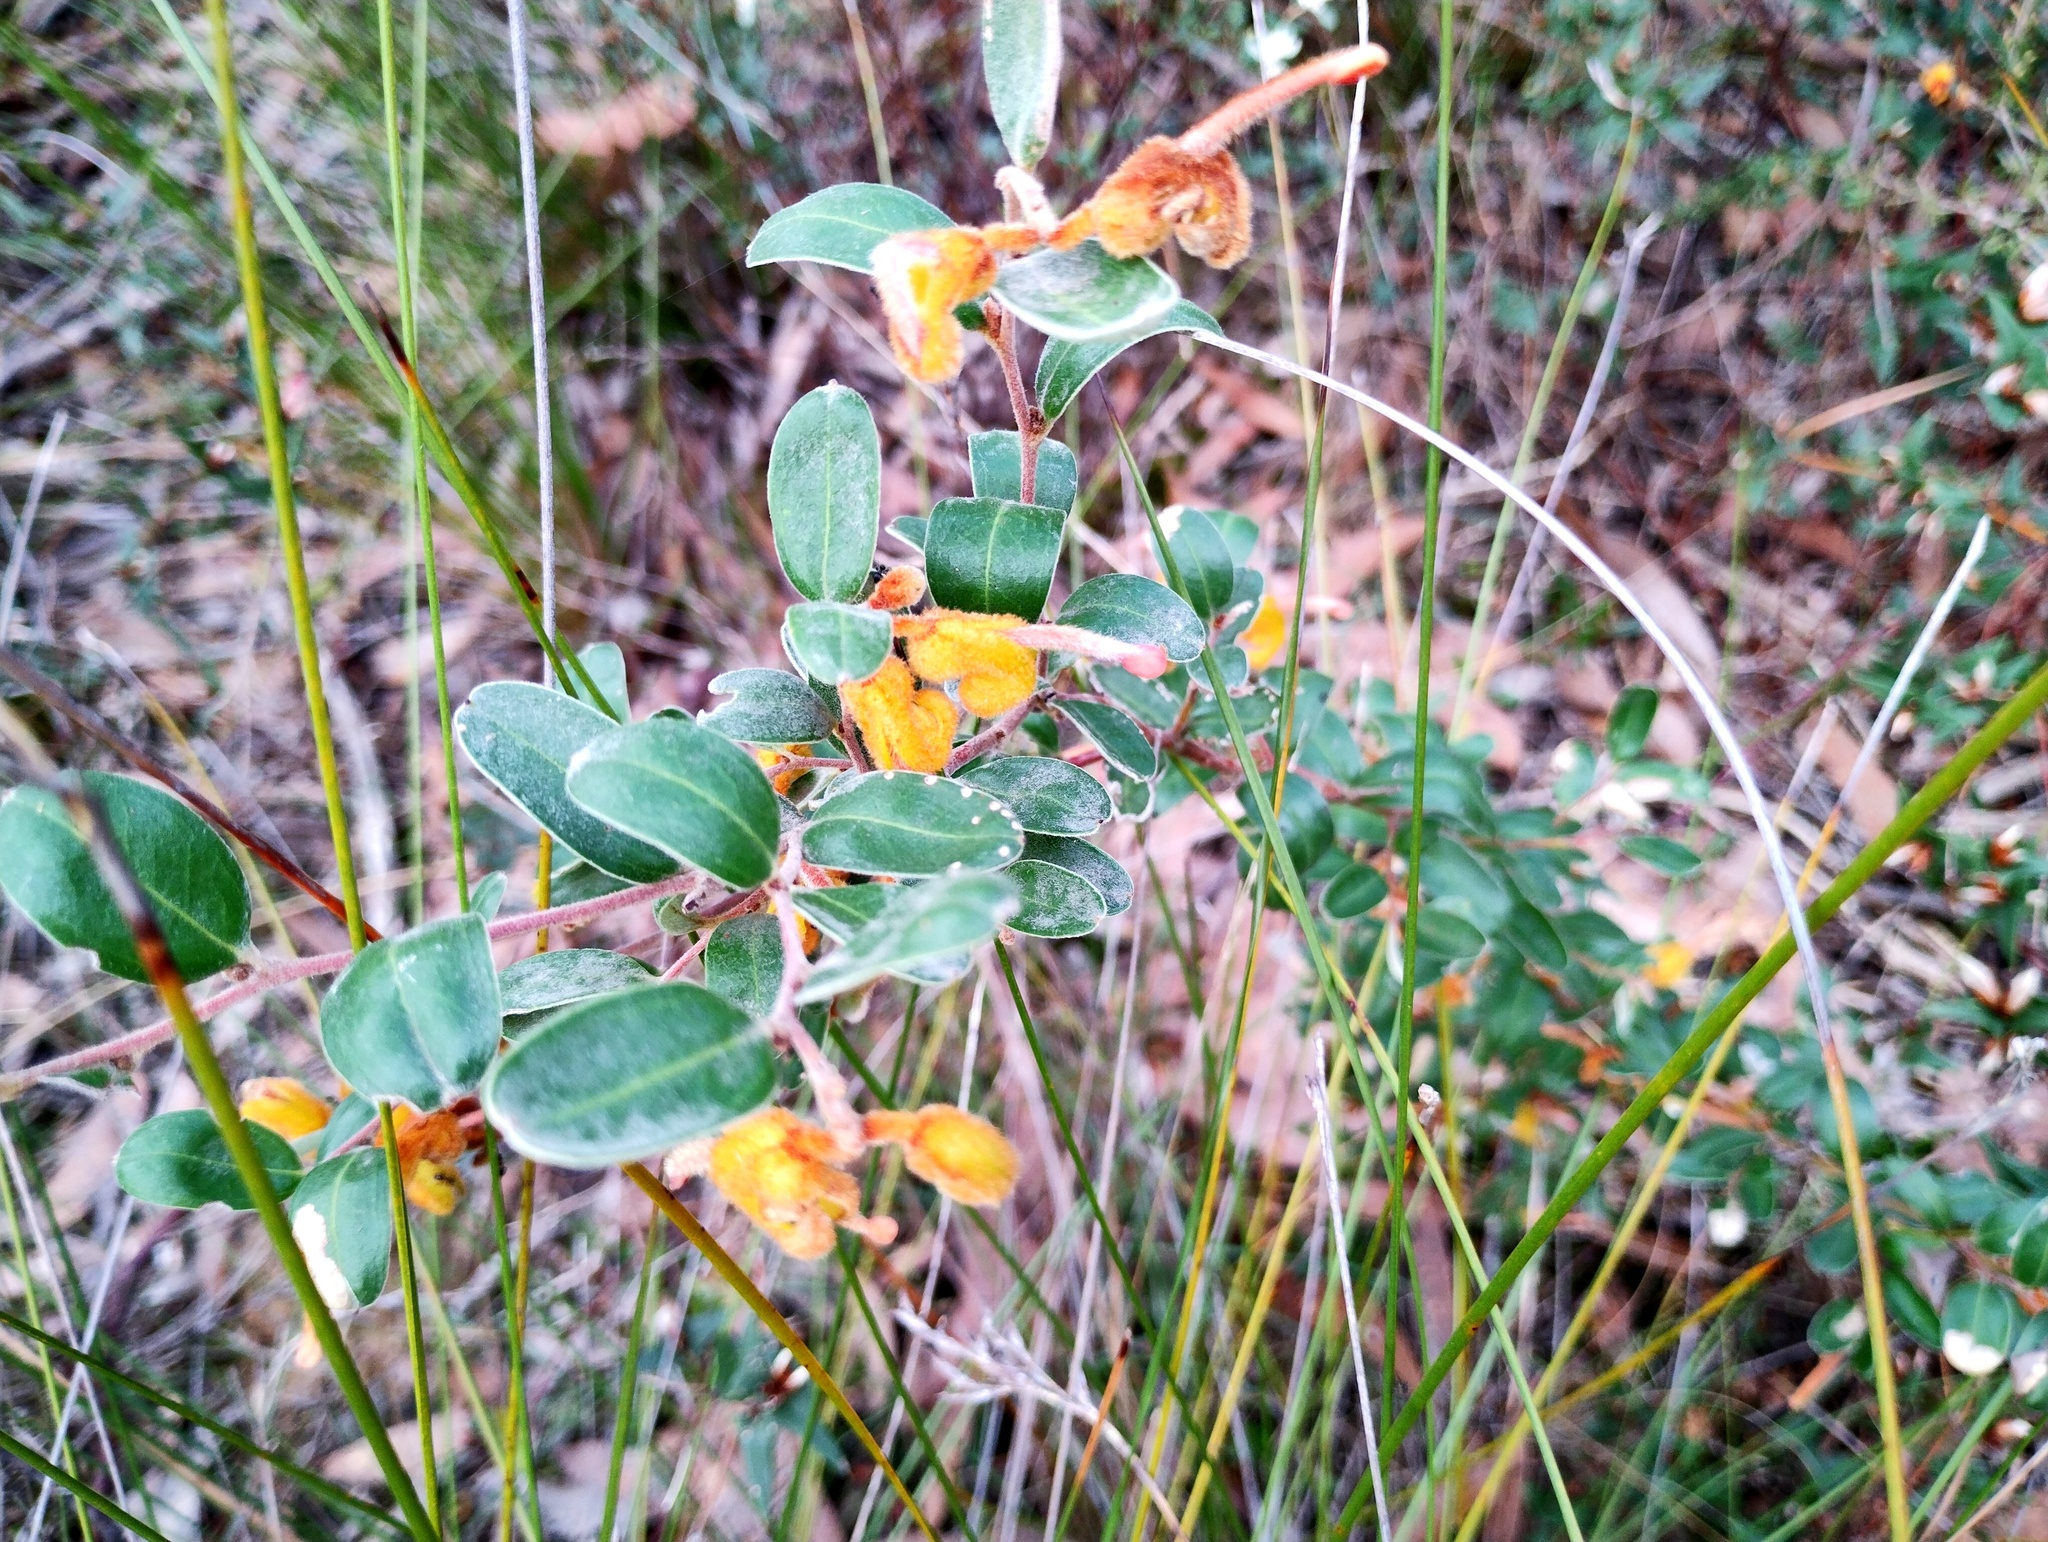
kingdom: Plantae
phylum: Tracheophyta
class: Magnoliopsida
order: Proteales
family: Proteaceae
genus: Grevillea
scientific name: Grevillea chrysophaea
